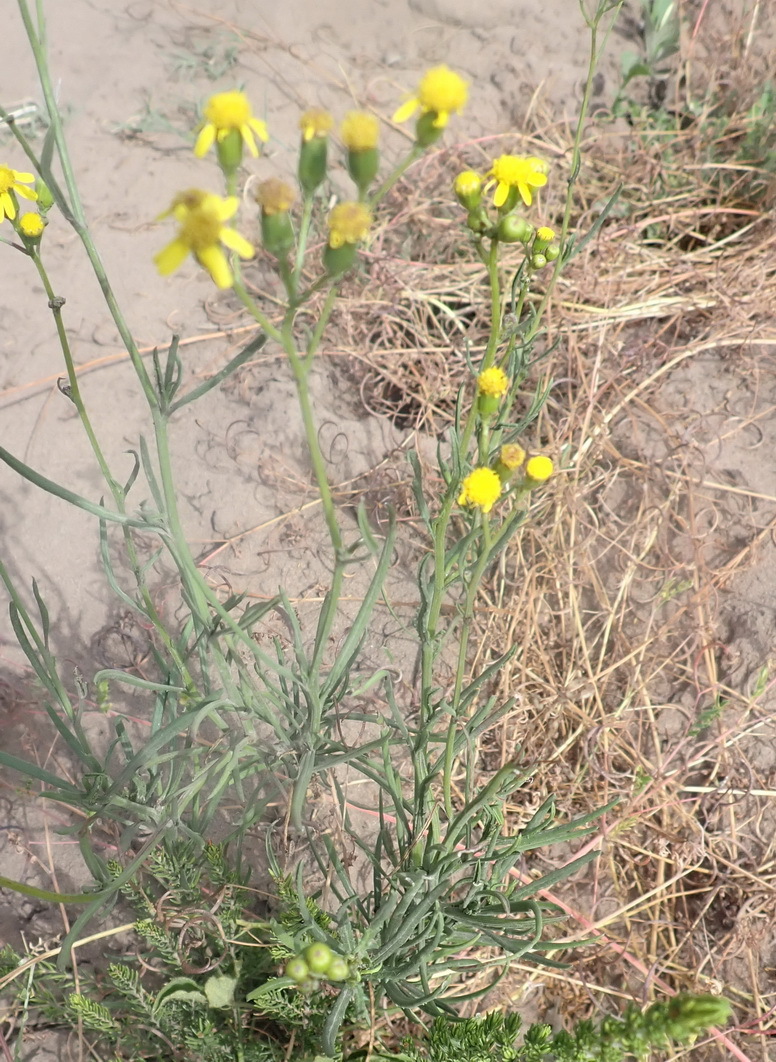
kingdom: Plantae
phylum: Tracheophyta
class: Magnoliopsida
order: Asterales
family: Asteraceae
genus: Senecio
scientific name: Senecio burchellii
